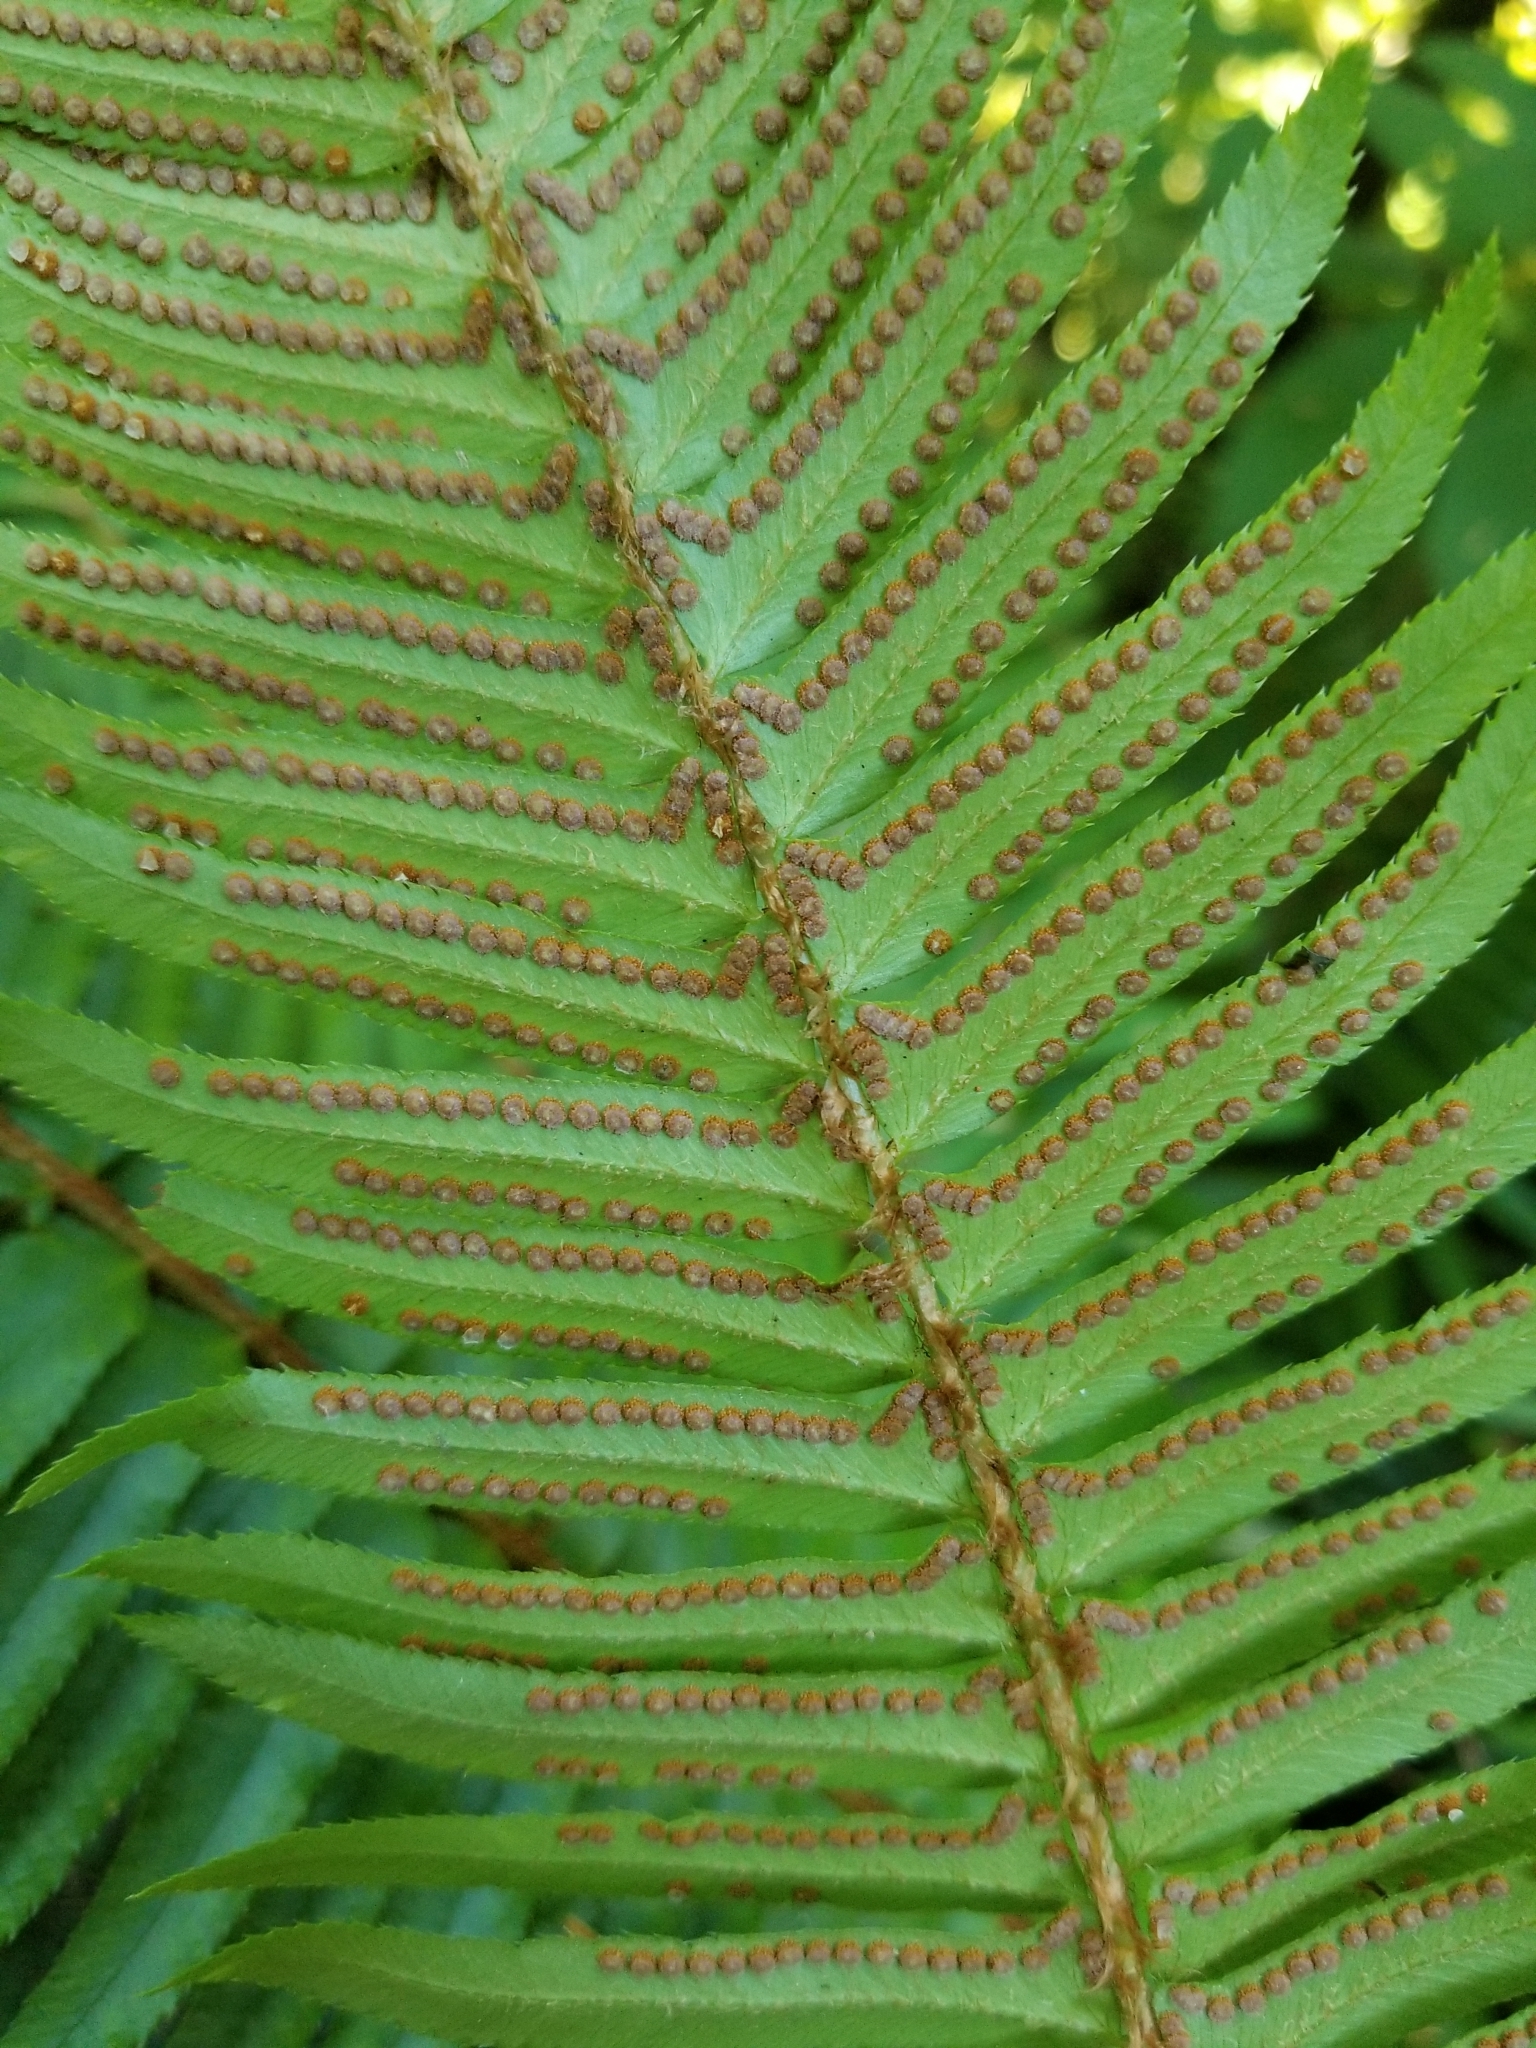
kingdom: Plantae
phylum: Tracheophyta
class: Polypodiopsida
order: Polypodiales
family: Dryopteridaceae
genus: Polystichum
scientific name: Polystichum munitum
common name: Western sword-fern
